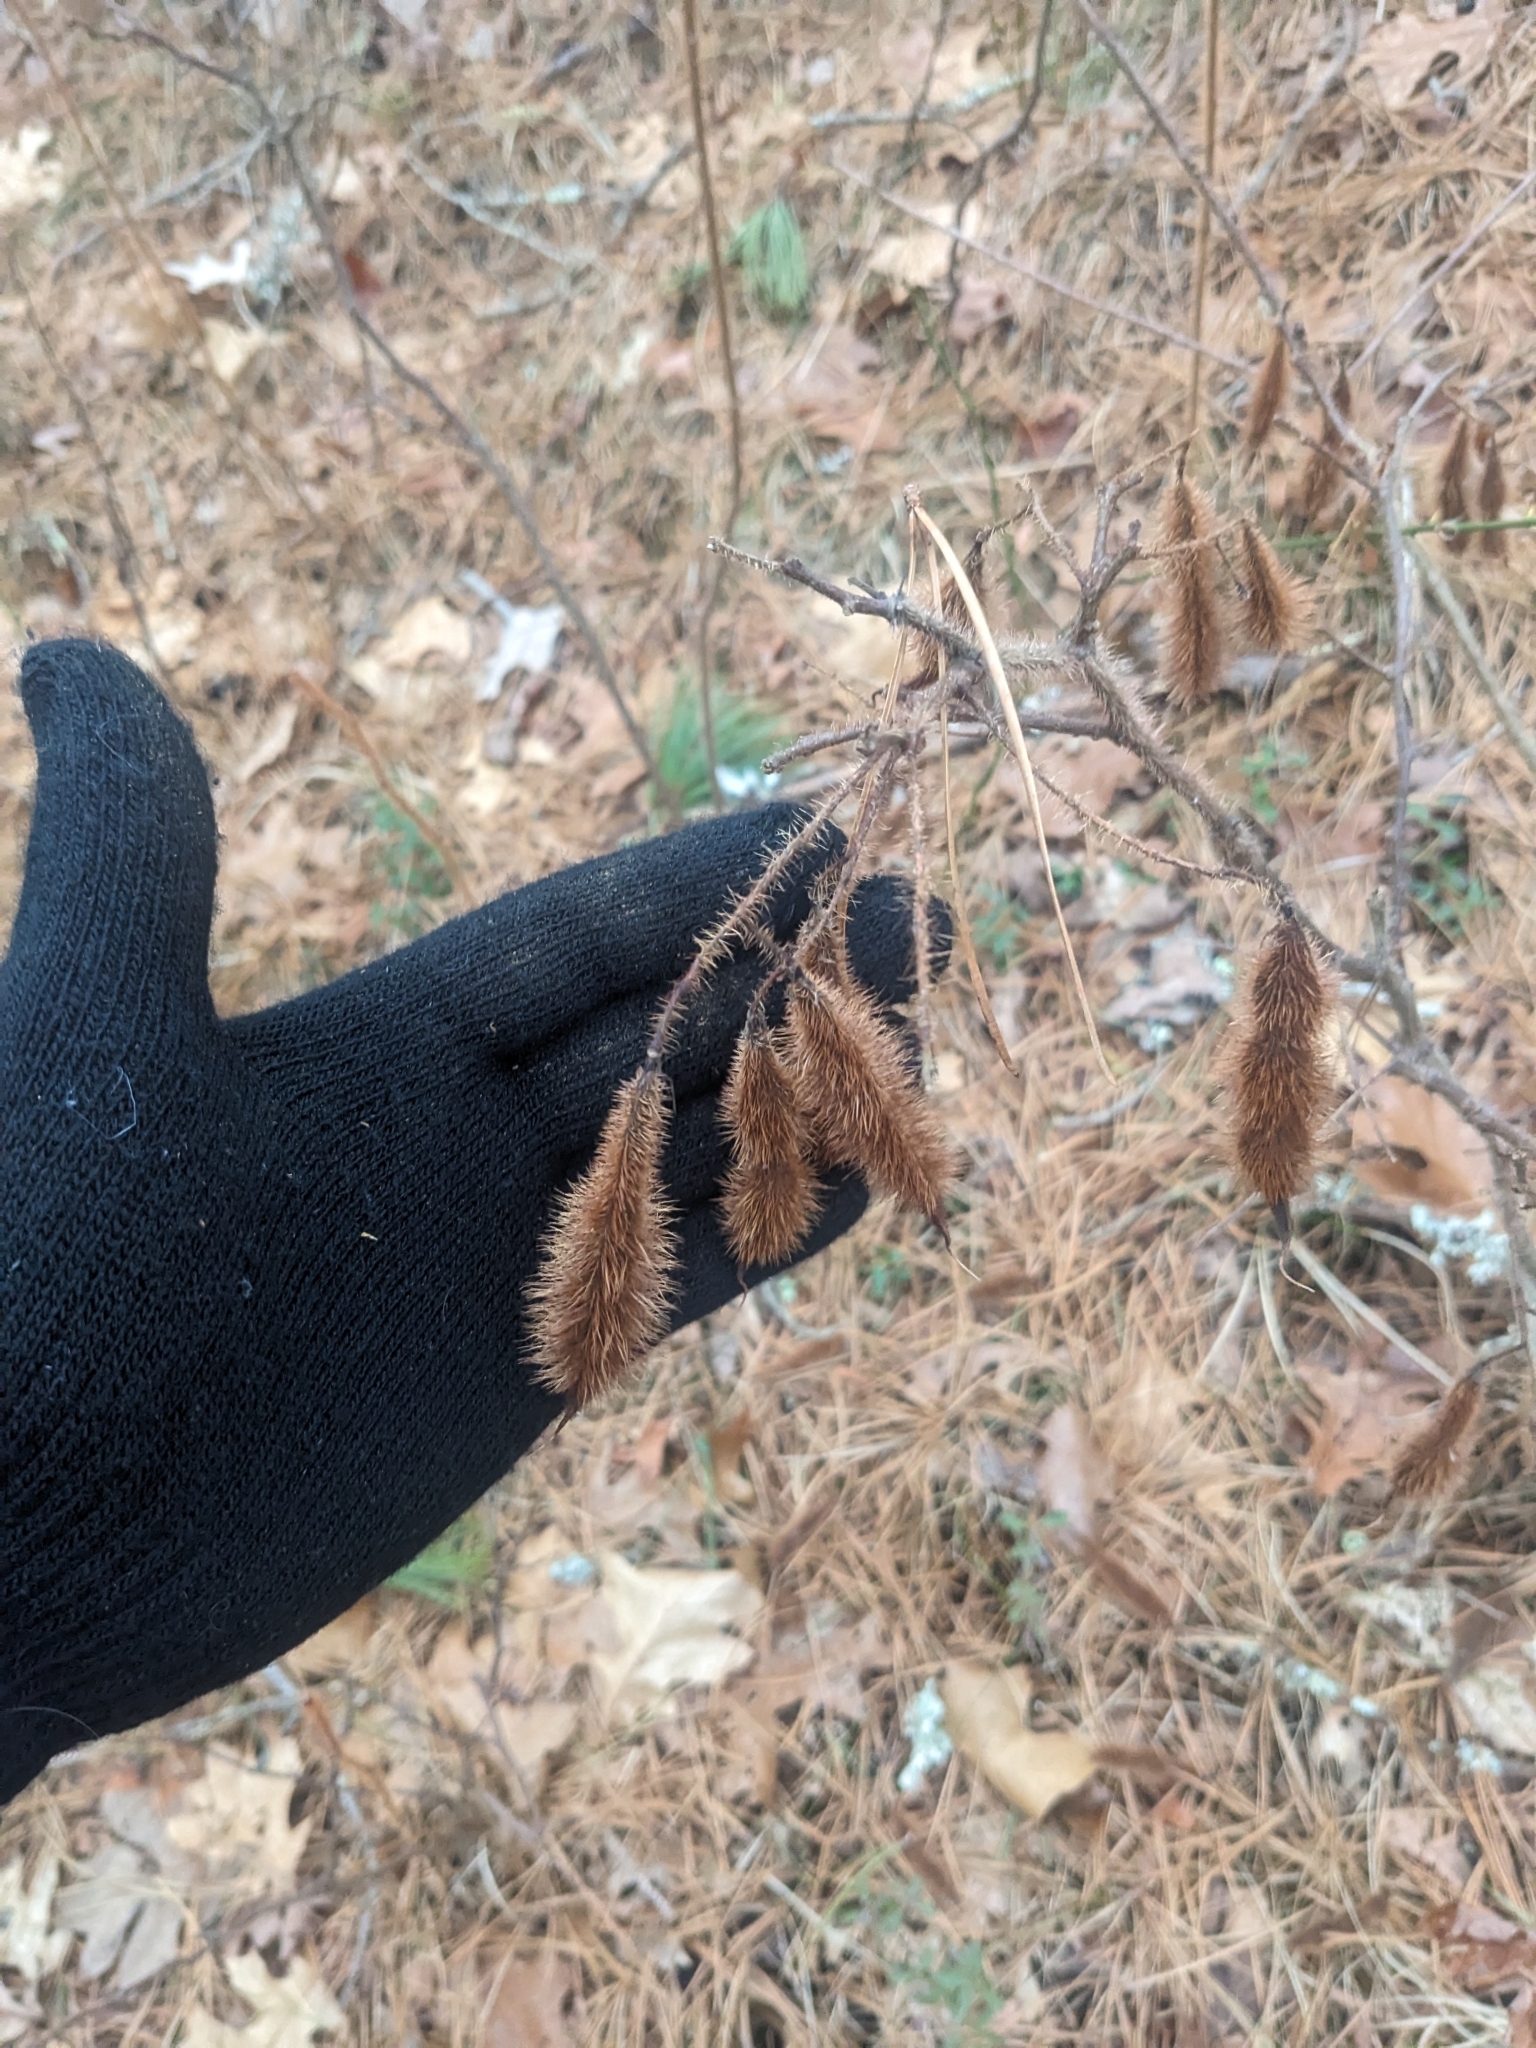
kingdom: Plantae
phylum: Tracheophyta
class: Magnoliopsida
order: Fabales
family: Fabaceae
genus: Robinia
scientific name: Robinia hispida
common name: Bristly locust
